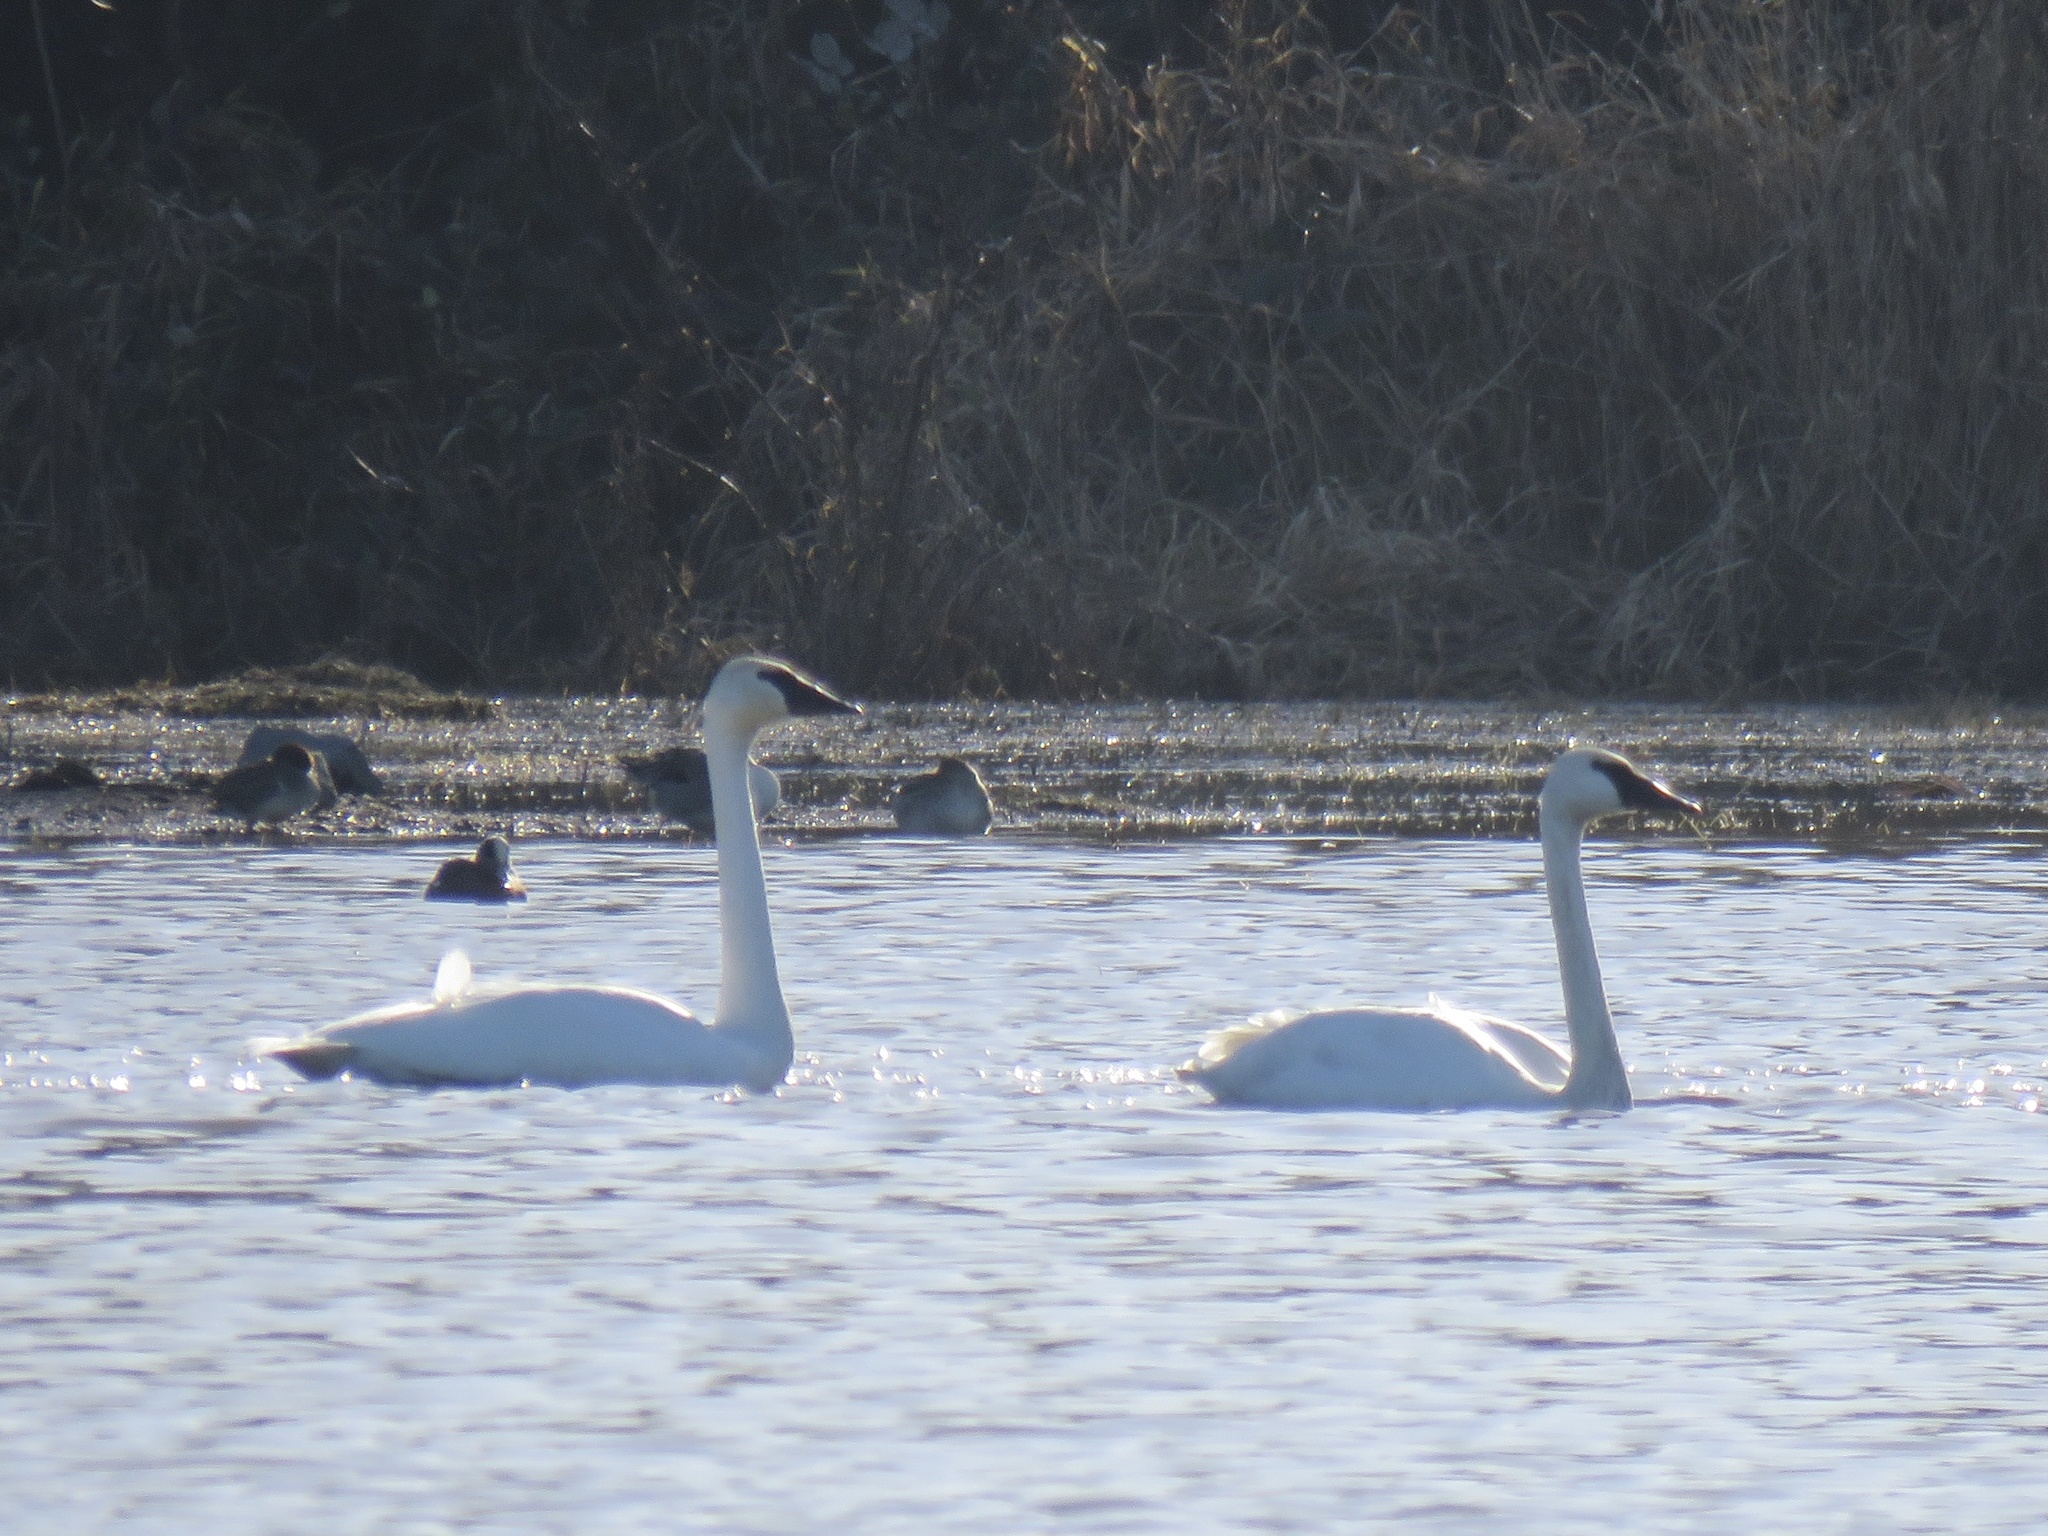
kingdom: Animalia
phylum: Chordata
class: Aves
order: Anseriformes
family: Anatidae
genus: Cygnus
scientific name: Cygnus buccinator
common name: Trumpeter swan
